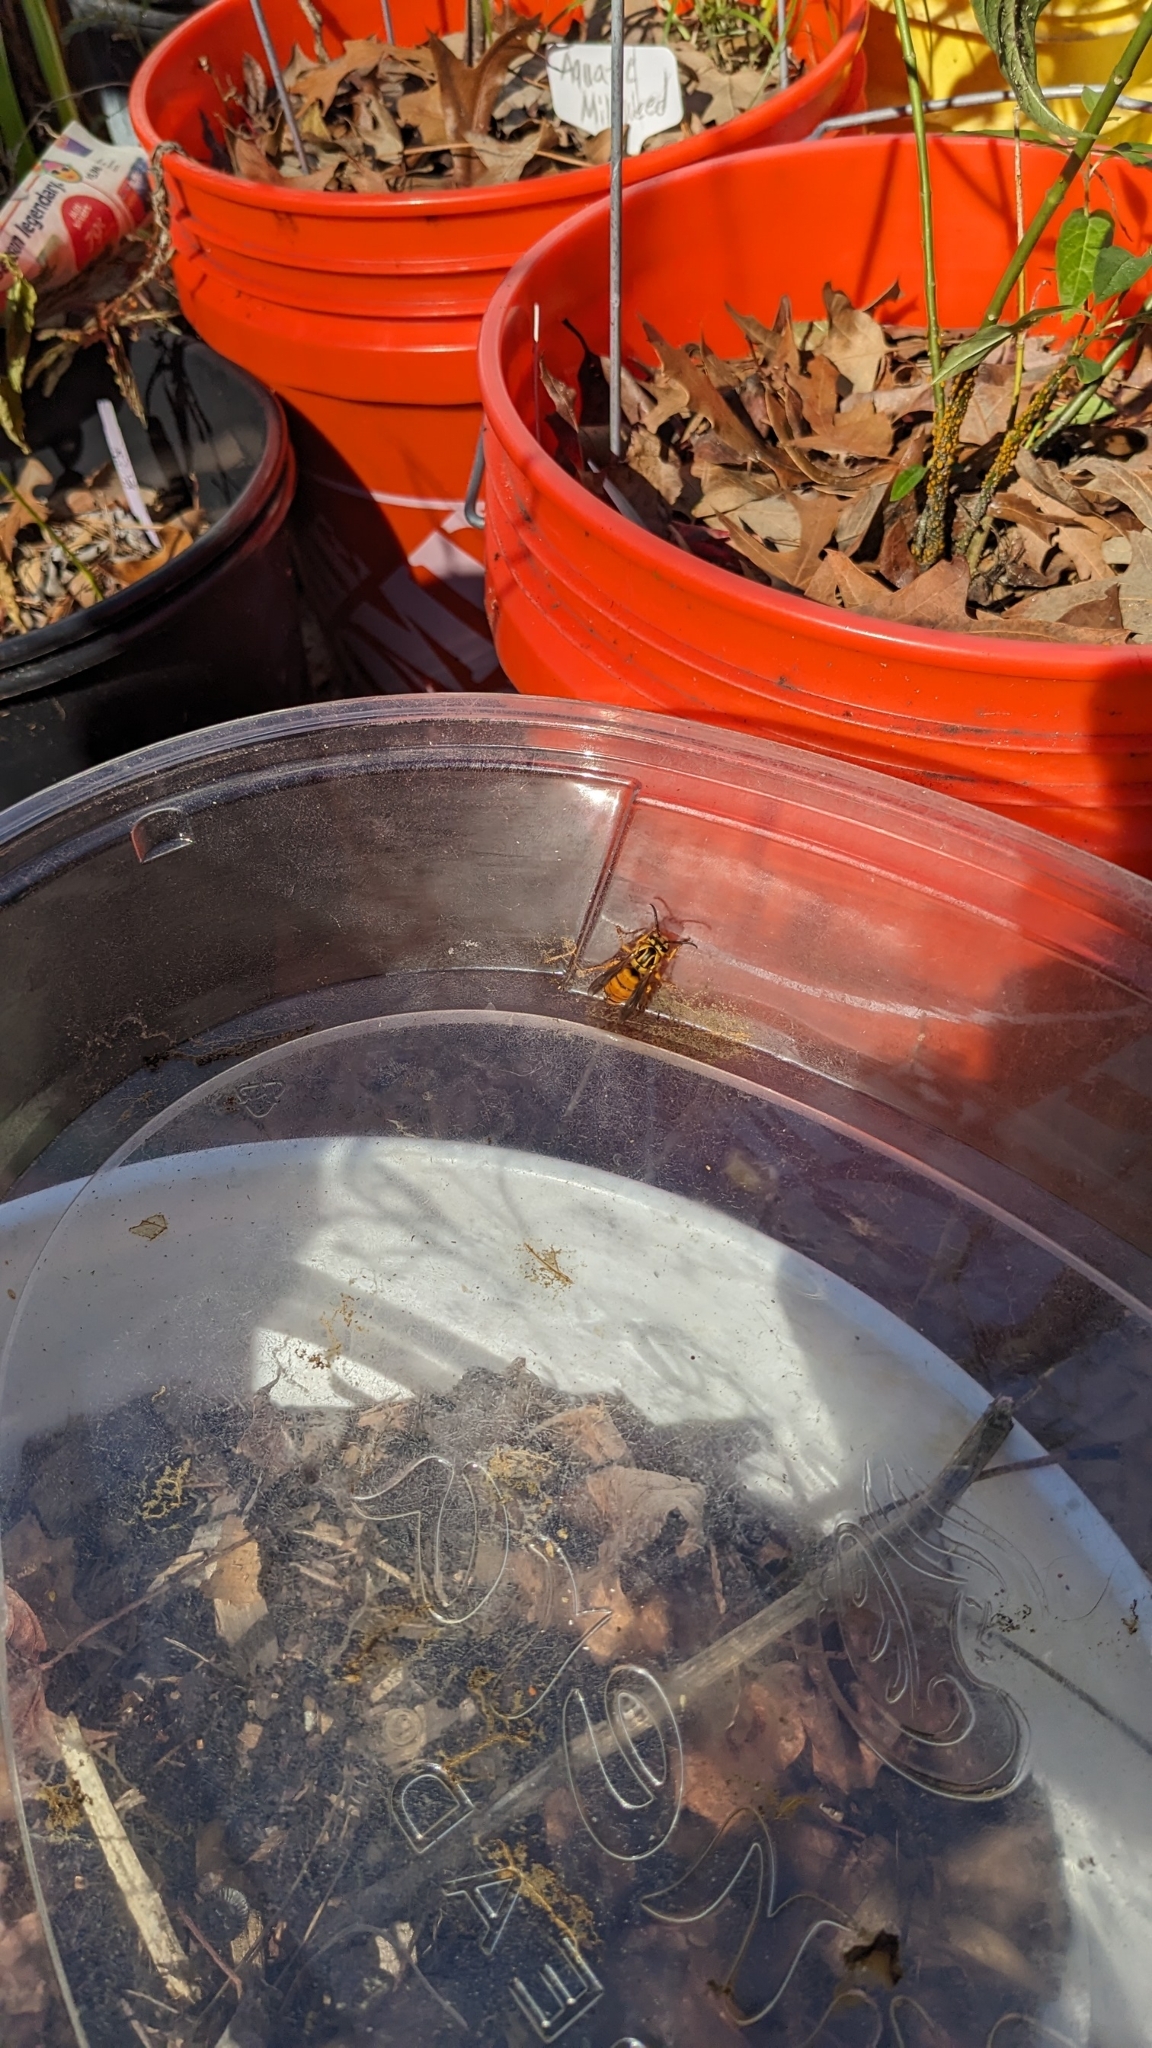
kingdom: Animalia
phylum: Arthropoda
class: Insecta
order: Hymenoptera
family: Vespidae
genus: Vespula
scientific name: Vespula squamosa
